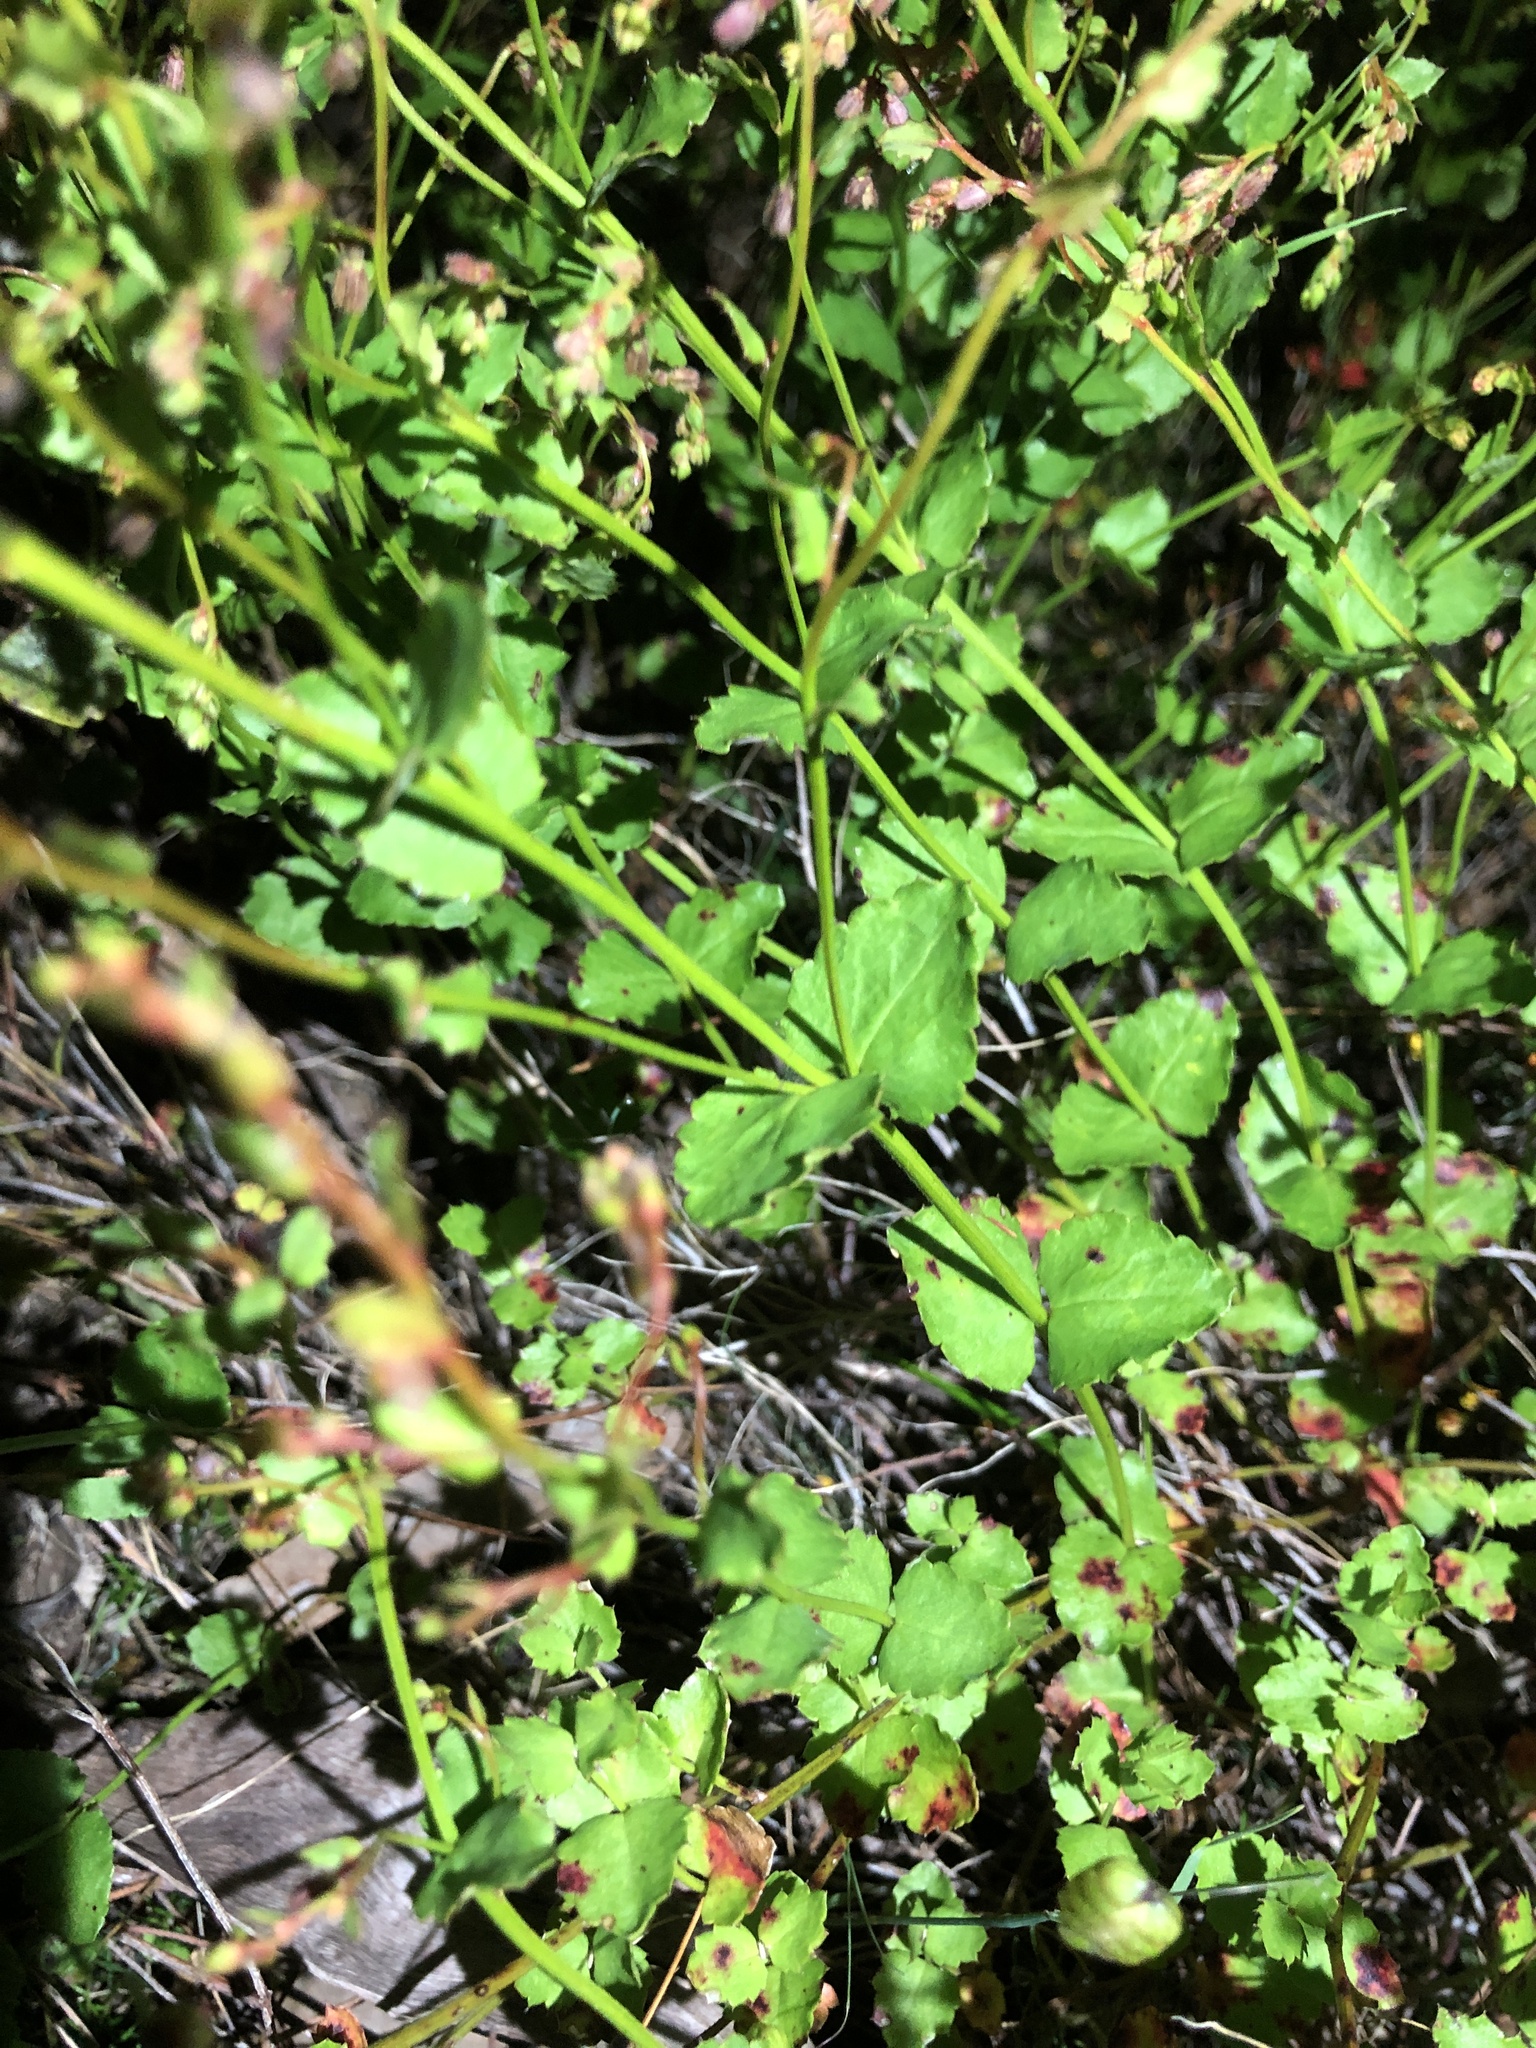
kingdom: Plantae
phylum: Tracheophyta
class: Magnoliopsida
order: Saxifragales
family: Haloragaceae
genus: Gonocarpus
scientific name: Gonocarpus mezianus
